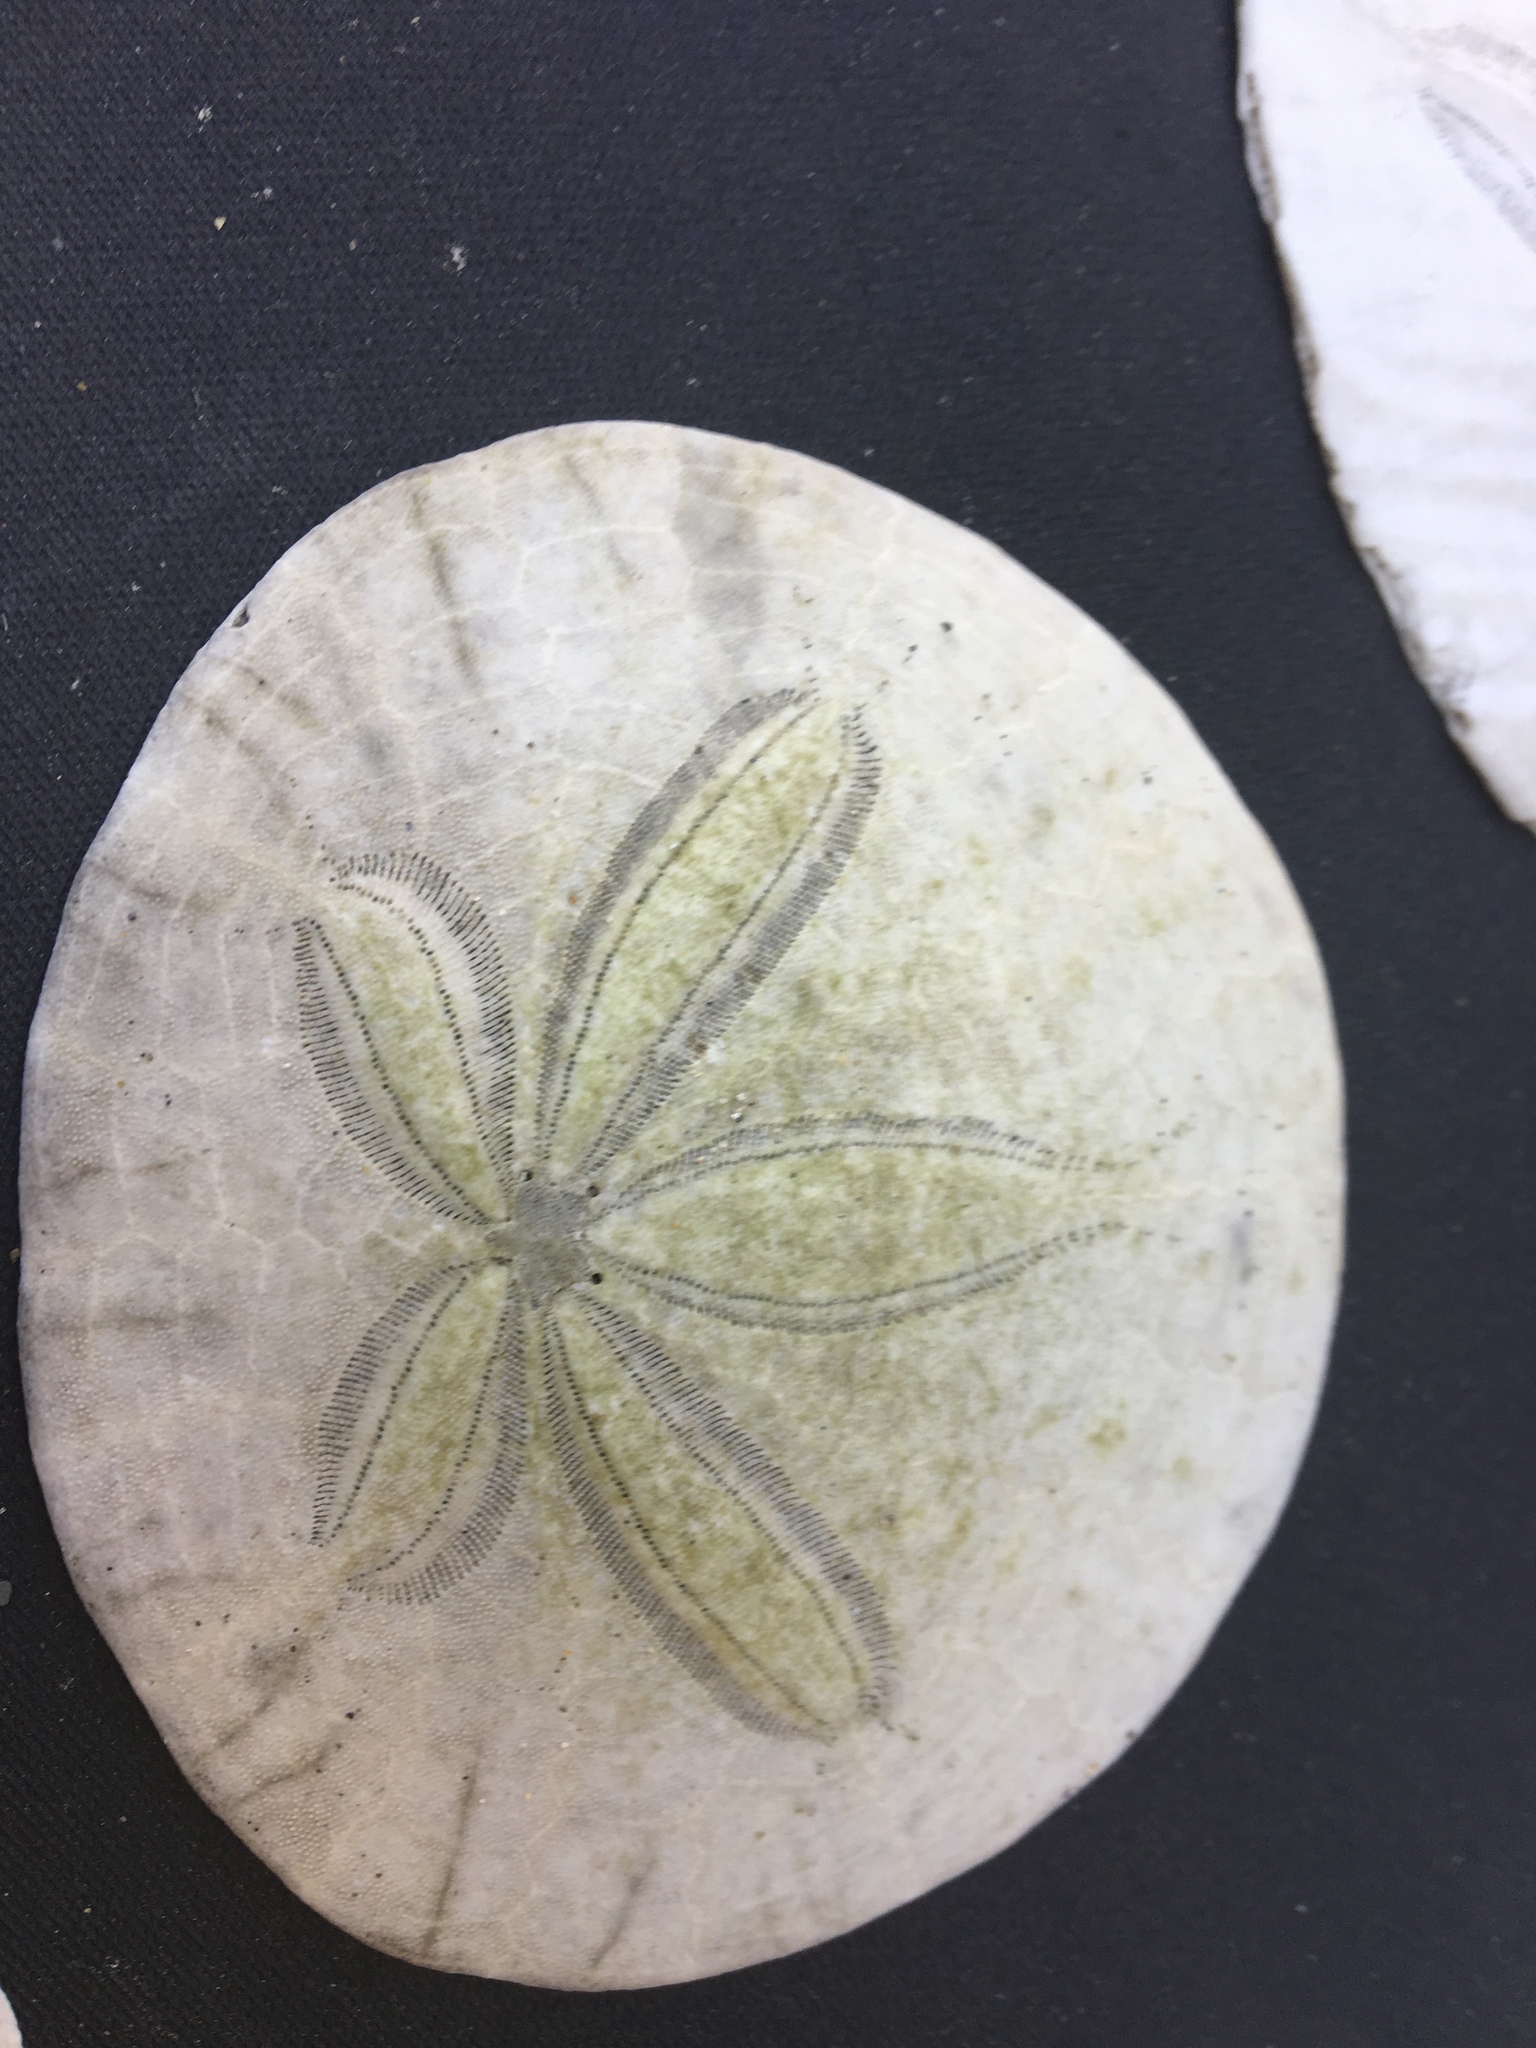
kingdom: Animalia
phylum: Echinodermata
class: Echinoidea
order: Echinolampadacea
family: Dendrasteridae
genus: Dendraster
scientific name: Dendraster excentricus
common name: Eccentric sand dollar sea urchin
